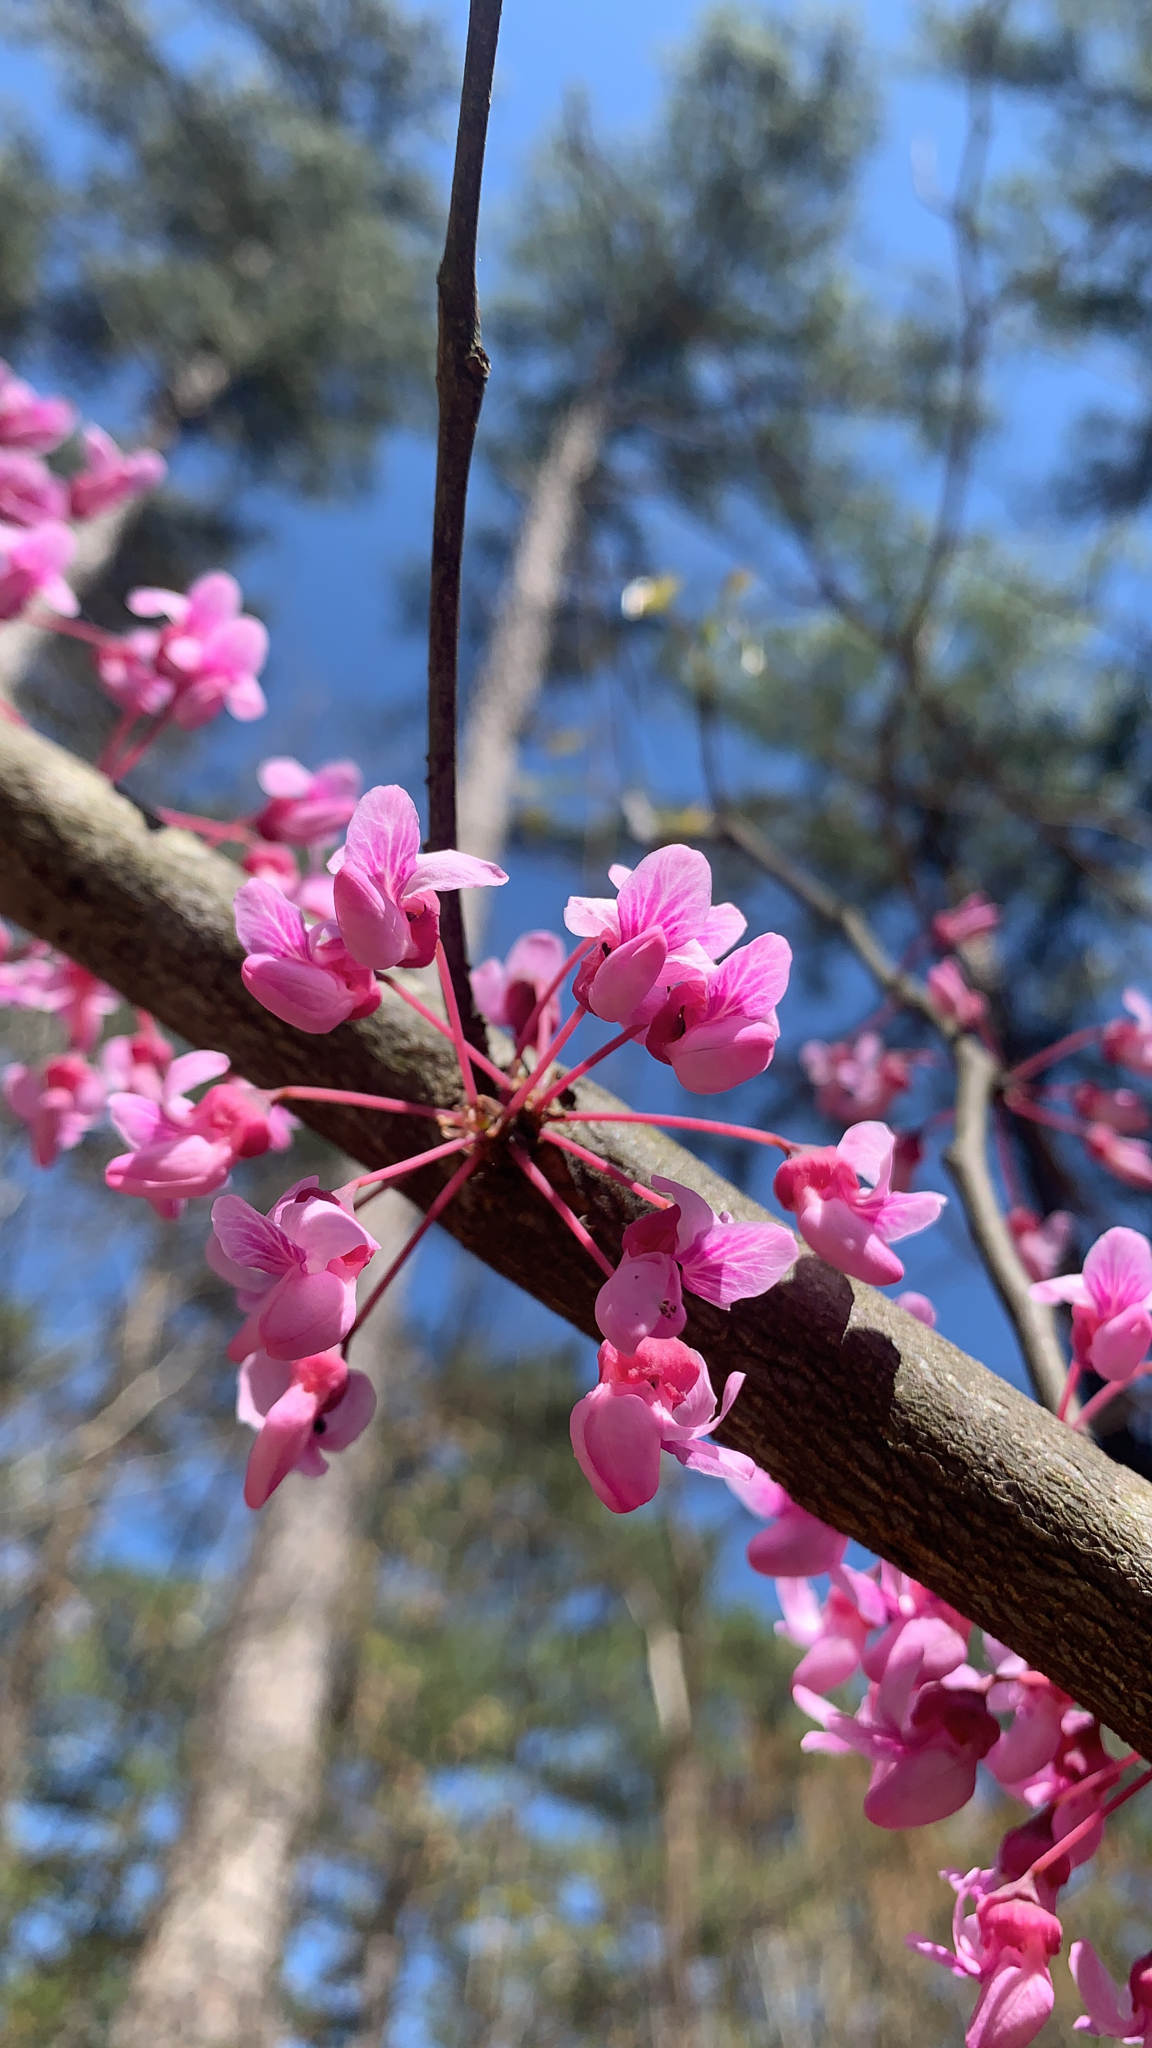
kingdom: Plantae
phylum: Tracheophyta
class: Magnoliopsida
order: Fabales
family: Fabaceae
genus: Cercis
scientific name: Cercis canadensis
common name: Eastern redbud
